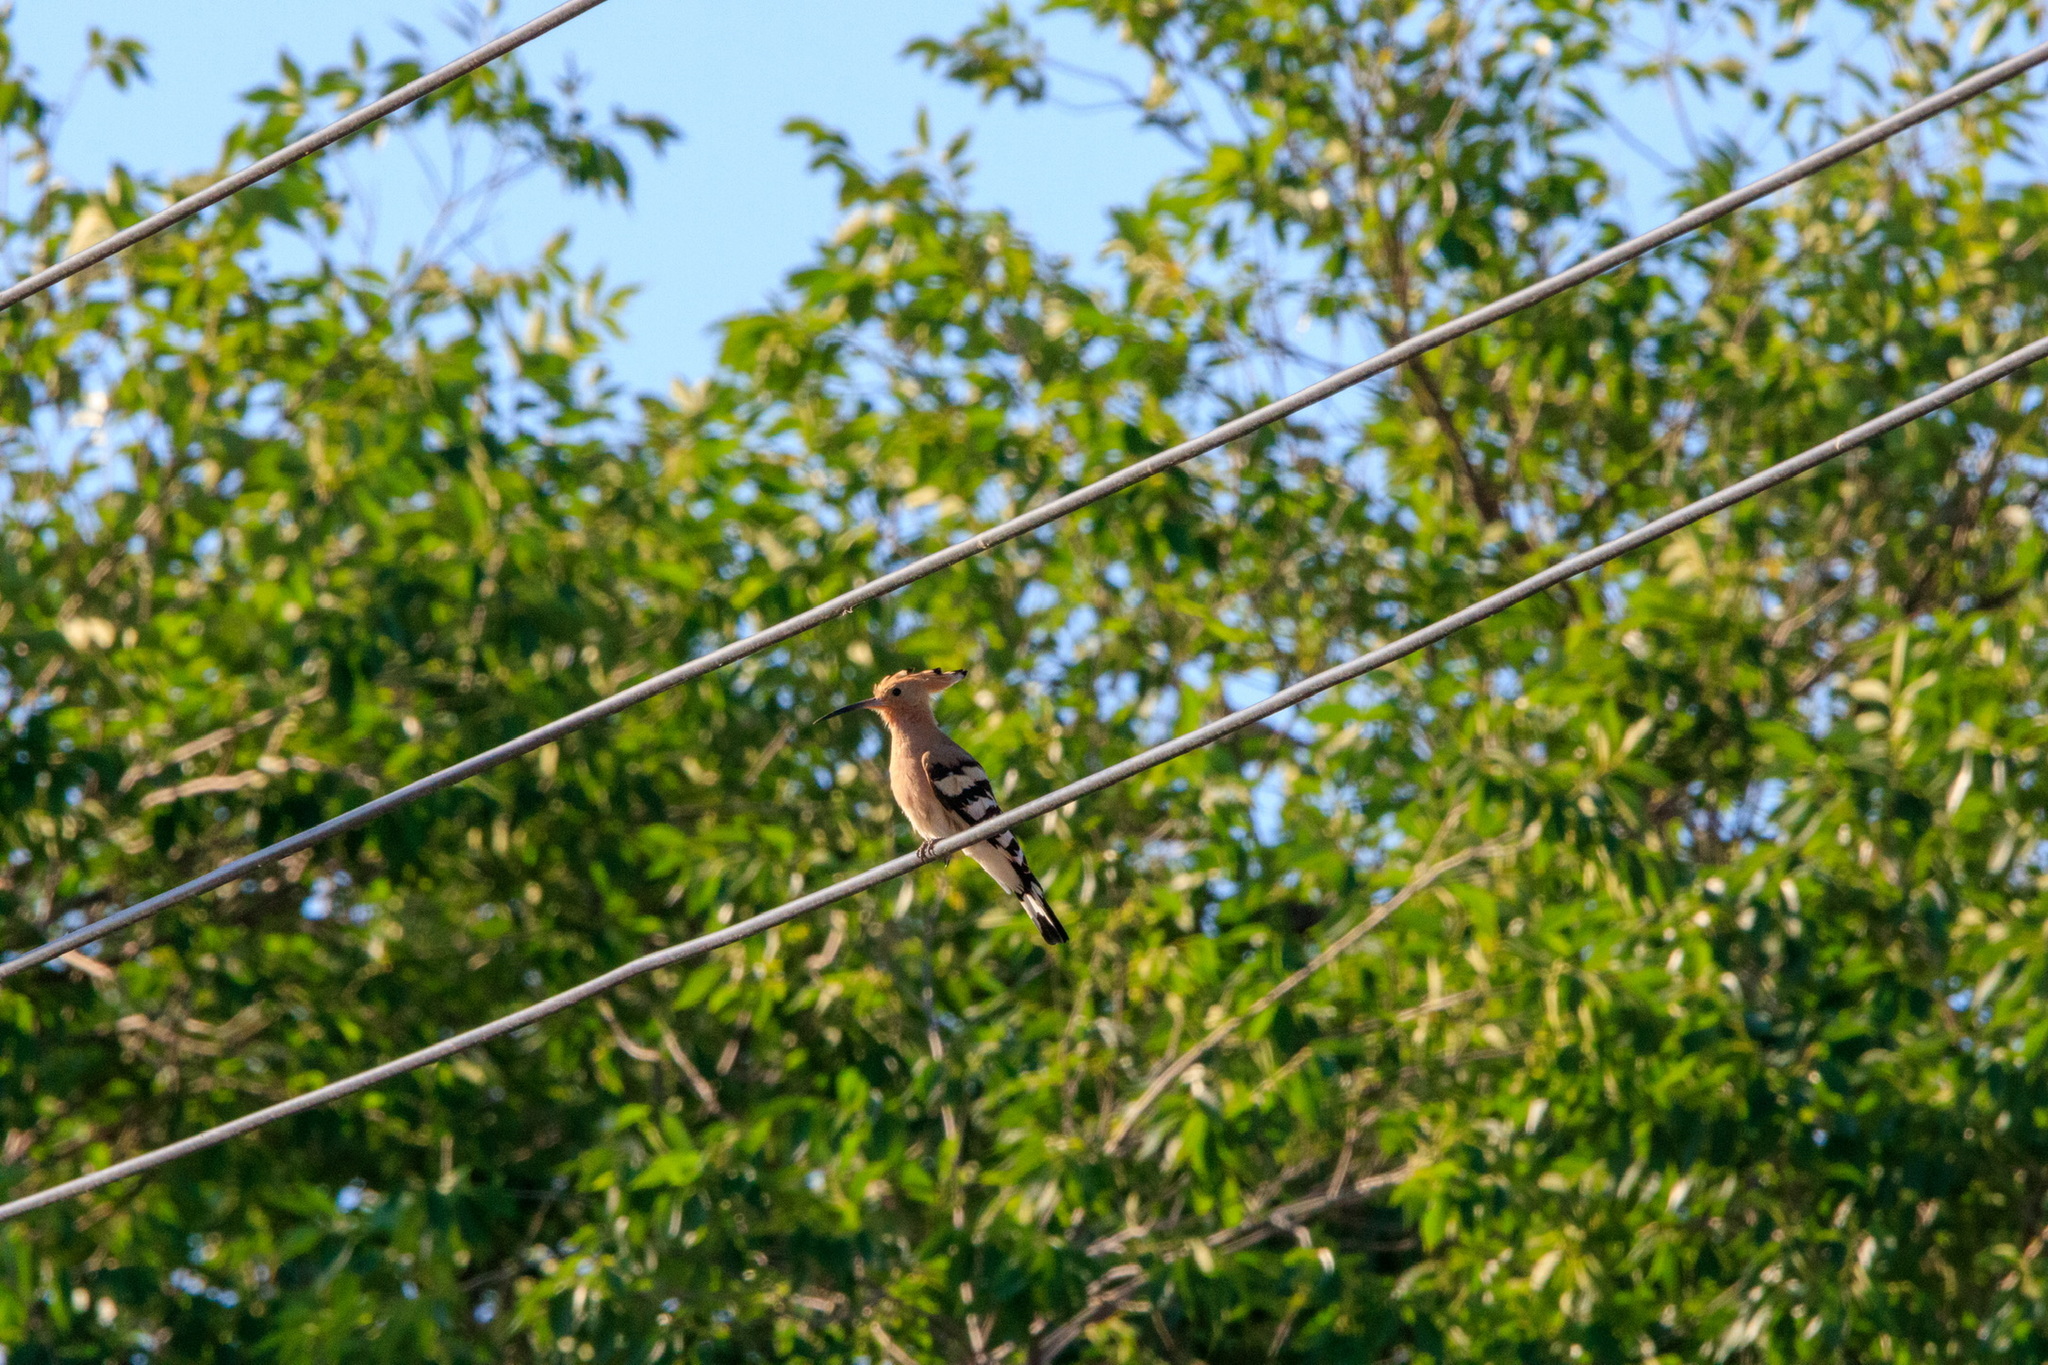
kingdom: Animalia
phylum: Chordata
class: Aves
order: Bucerotiformes
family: Upupidae
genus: Upupa
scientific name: Upupa epops
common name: Eurasian hoopoe
